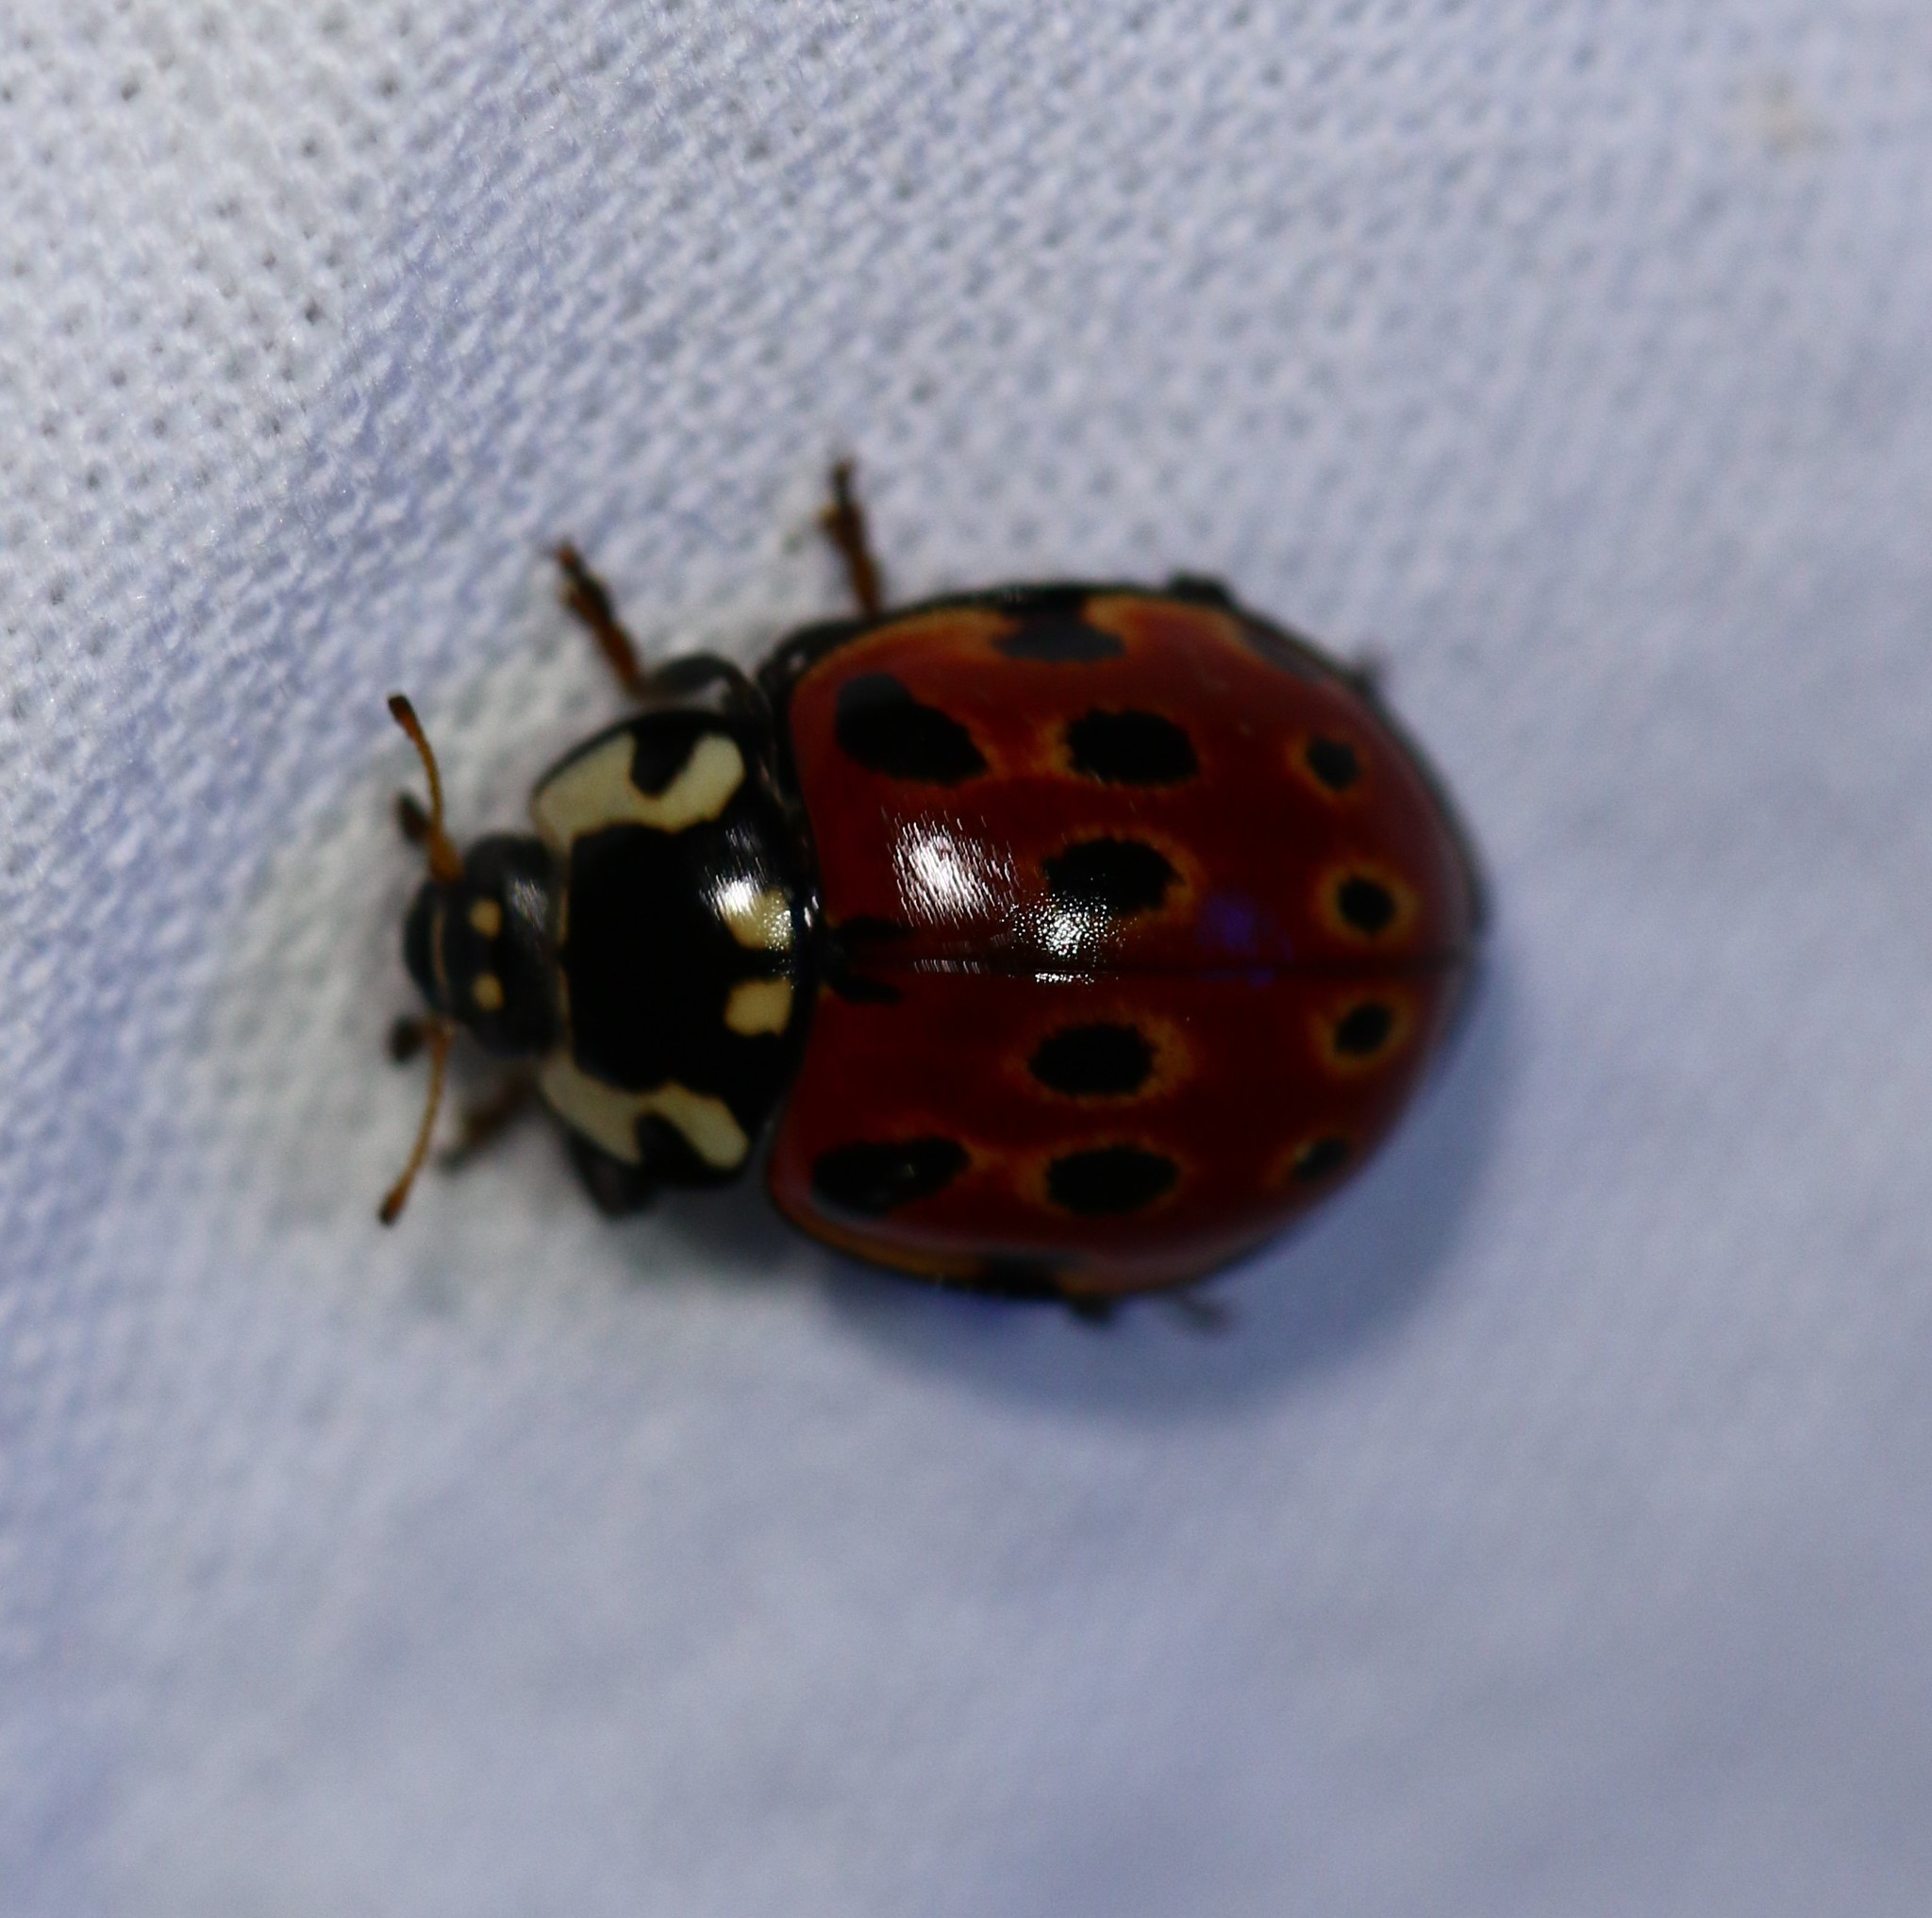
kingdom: Animalia
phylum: Arthropoda
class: Insecta
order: Coleoptera
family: Coccinellidae
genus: Anatis
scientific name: Anatis ocellata
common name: Eyed ladybird
